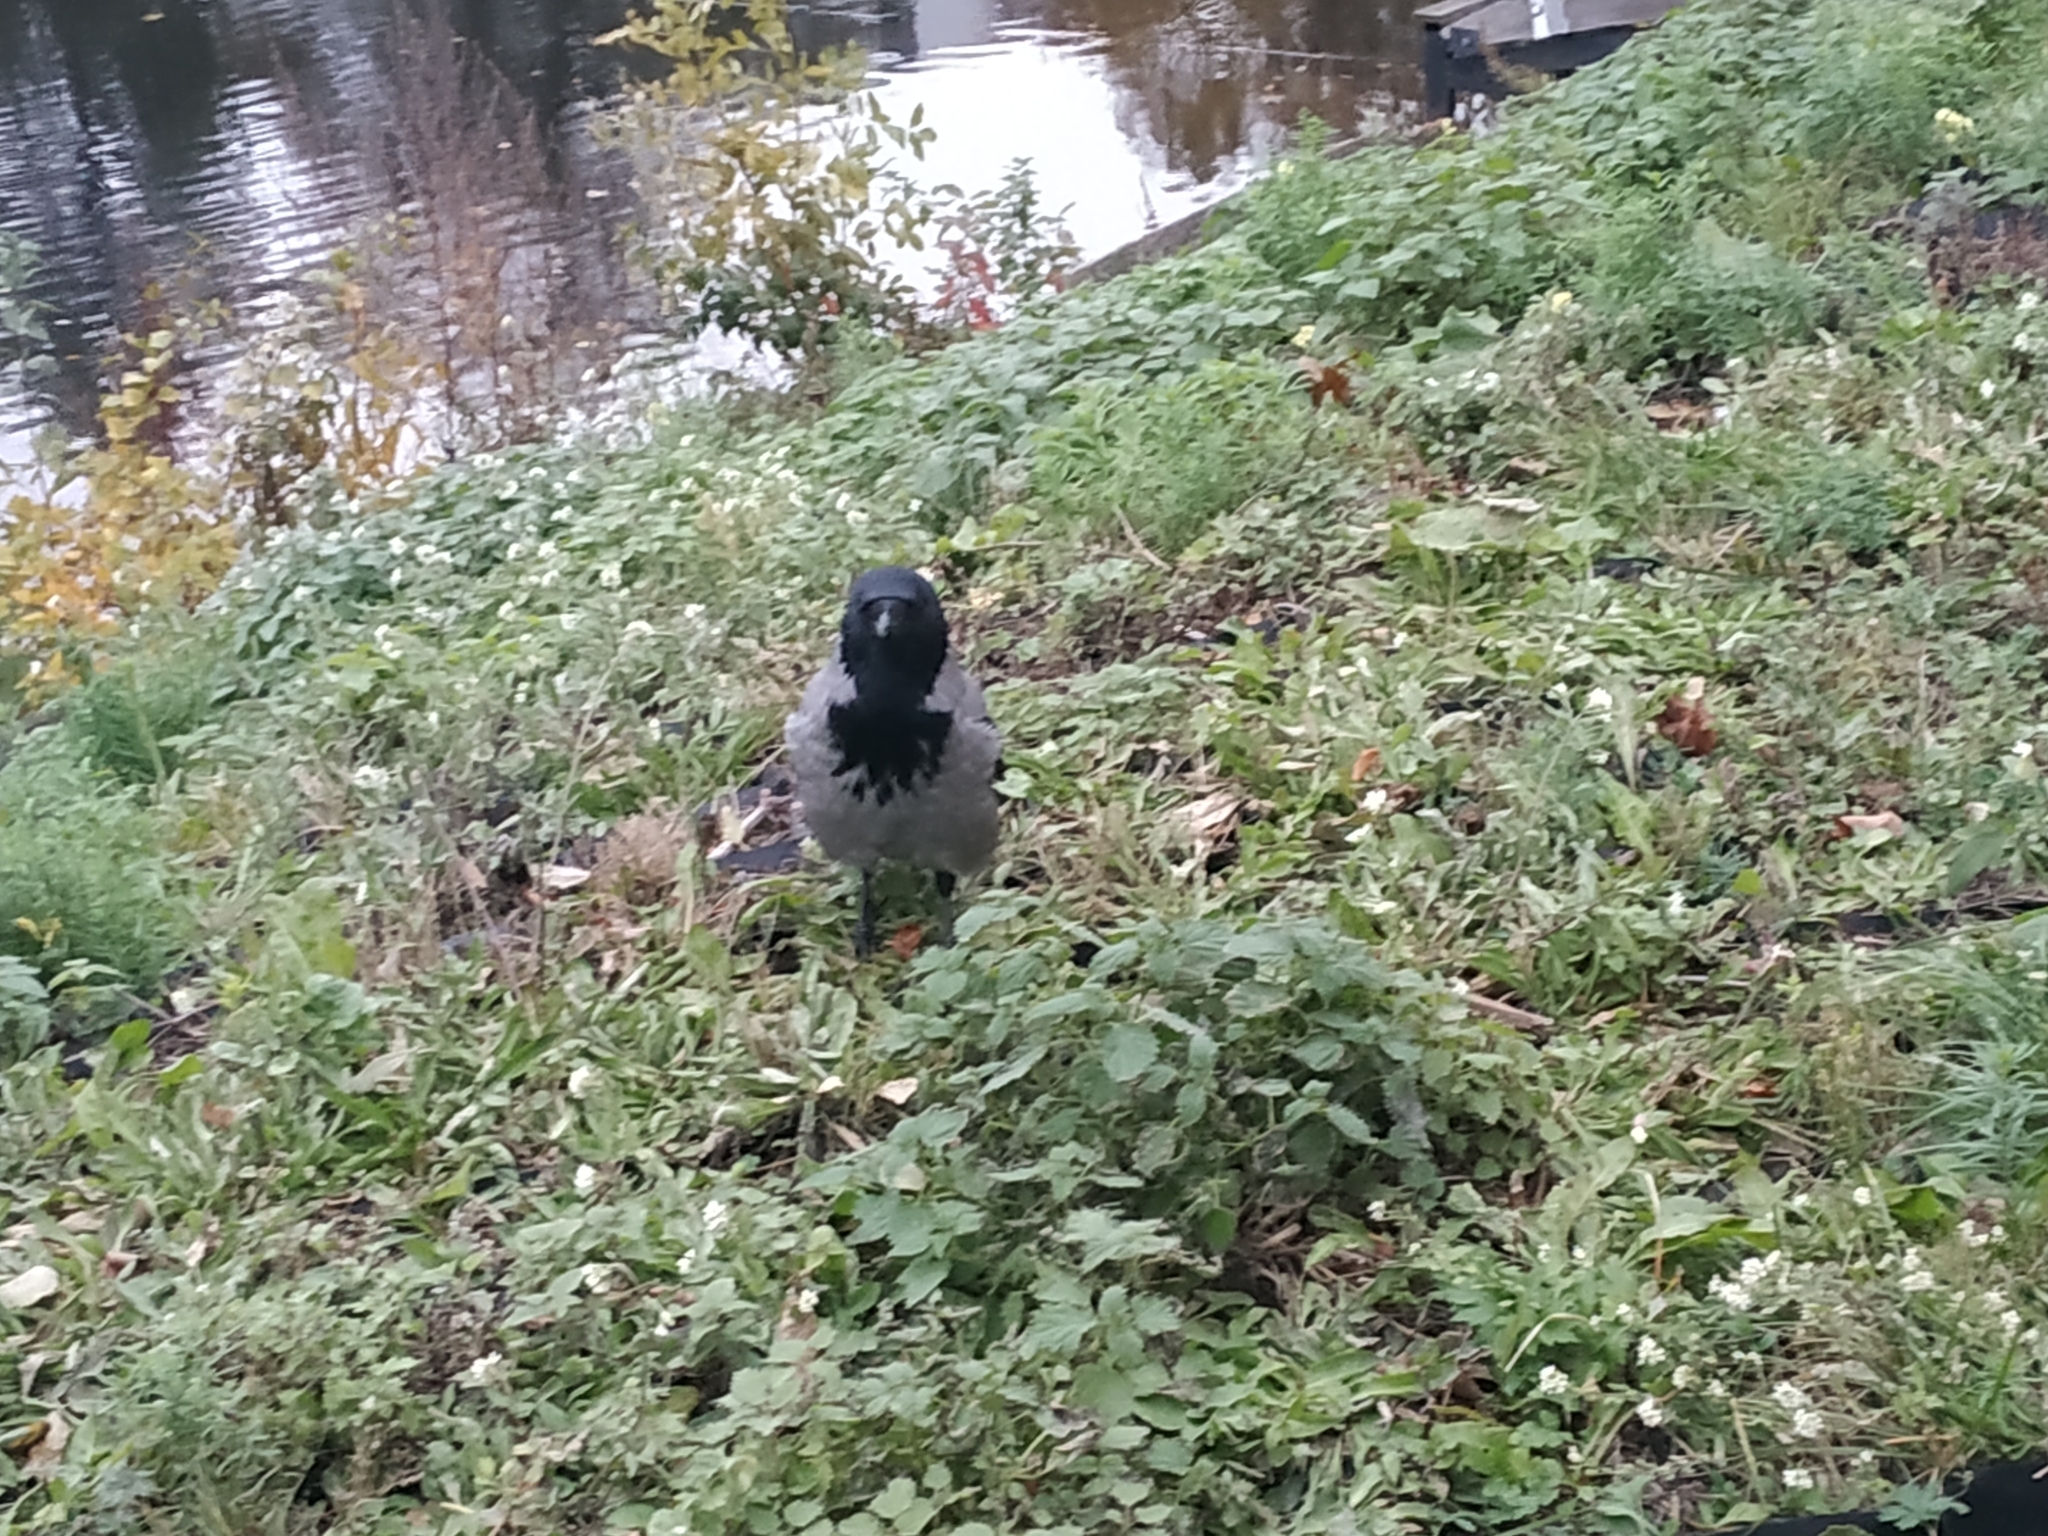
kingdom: Animalia
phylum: Chordata
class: Aves
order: Passeriformes
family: Corvidae
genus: Corvus
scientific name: Corvus cornix
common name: Hooded crow
